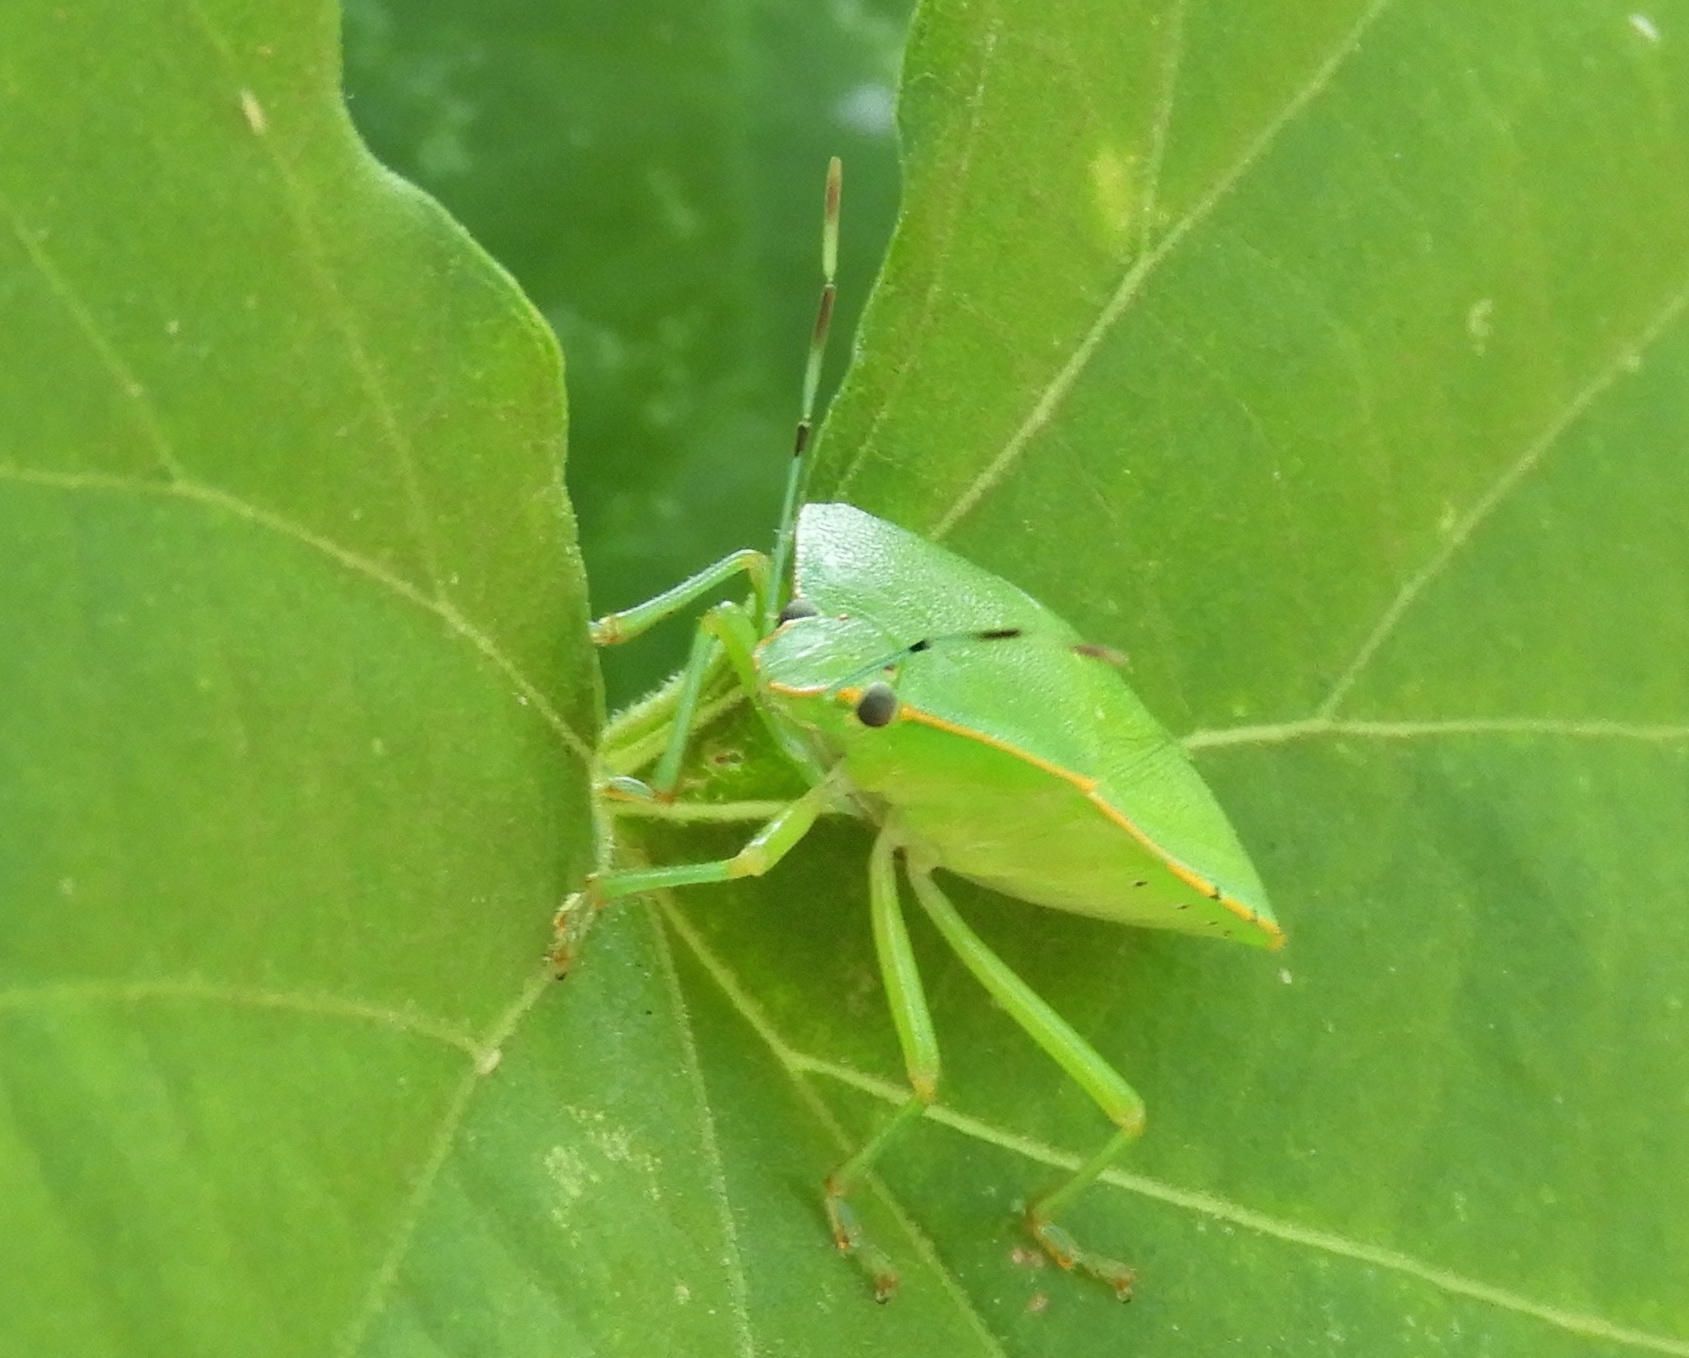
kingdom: Animalia
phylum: Arthropoda
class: Insecta
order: Hemiptera
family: Pentatomidae
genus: Acrosternum
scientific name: Acrosternum marginatum
